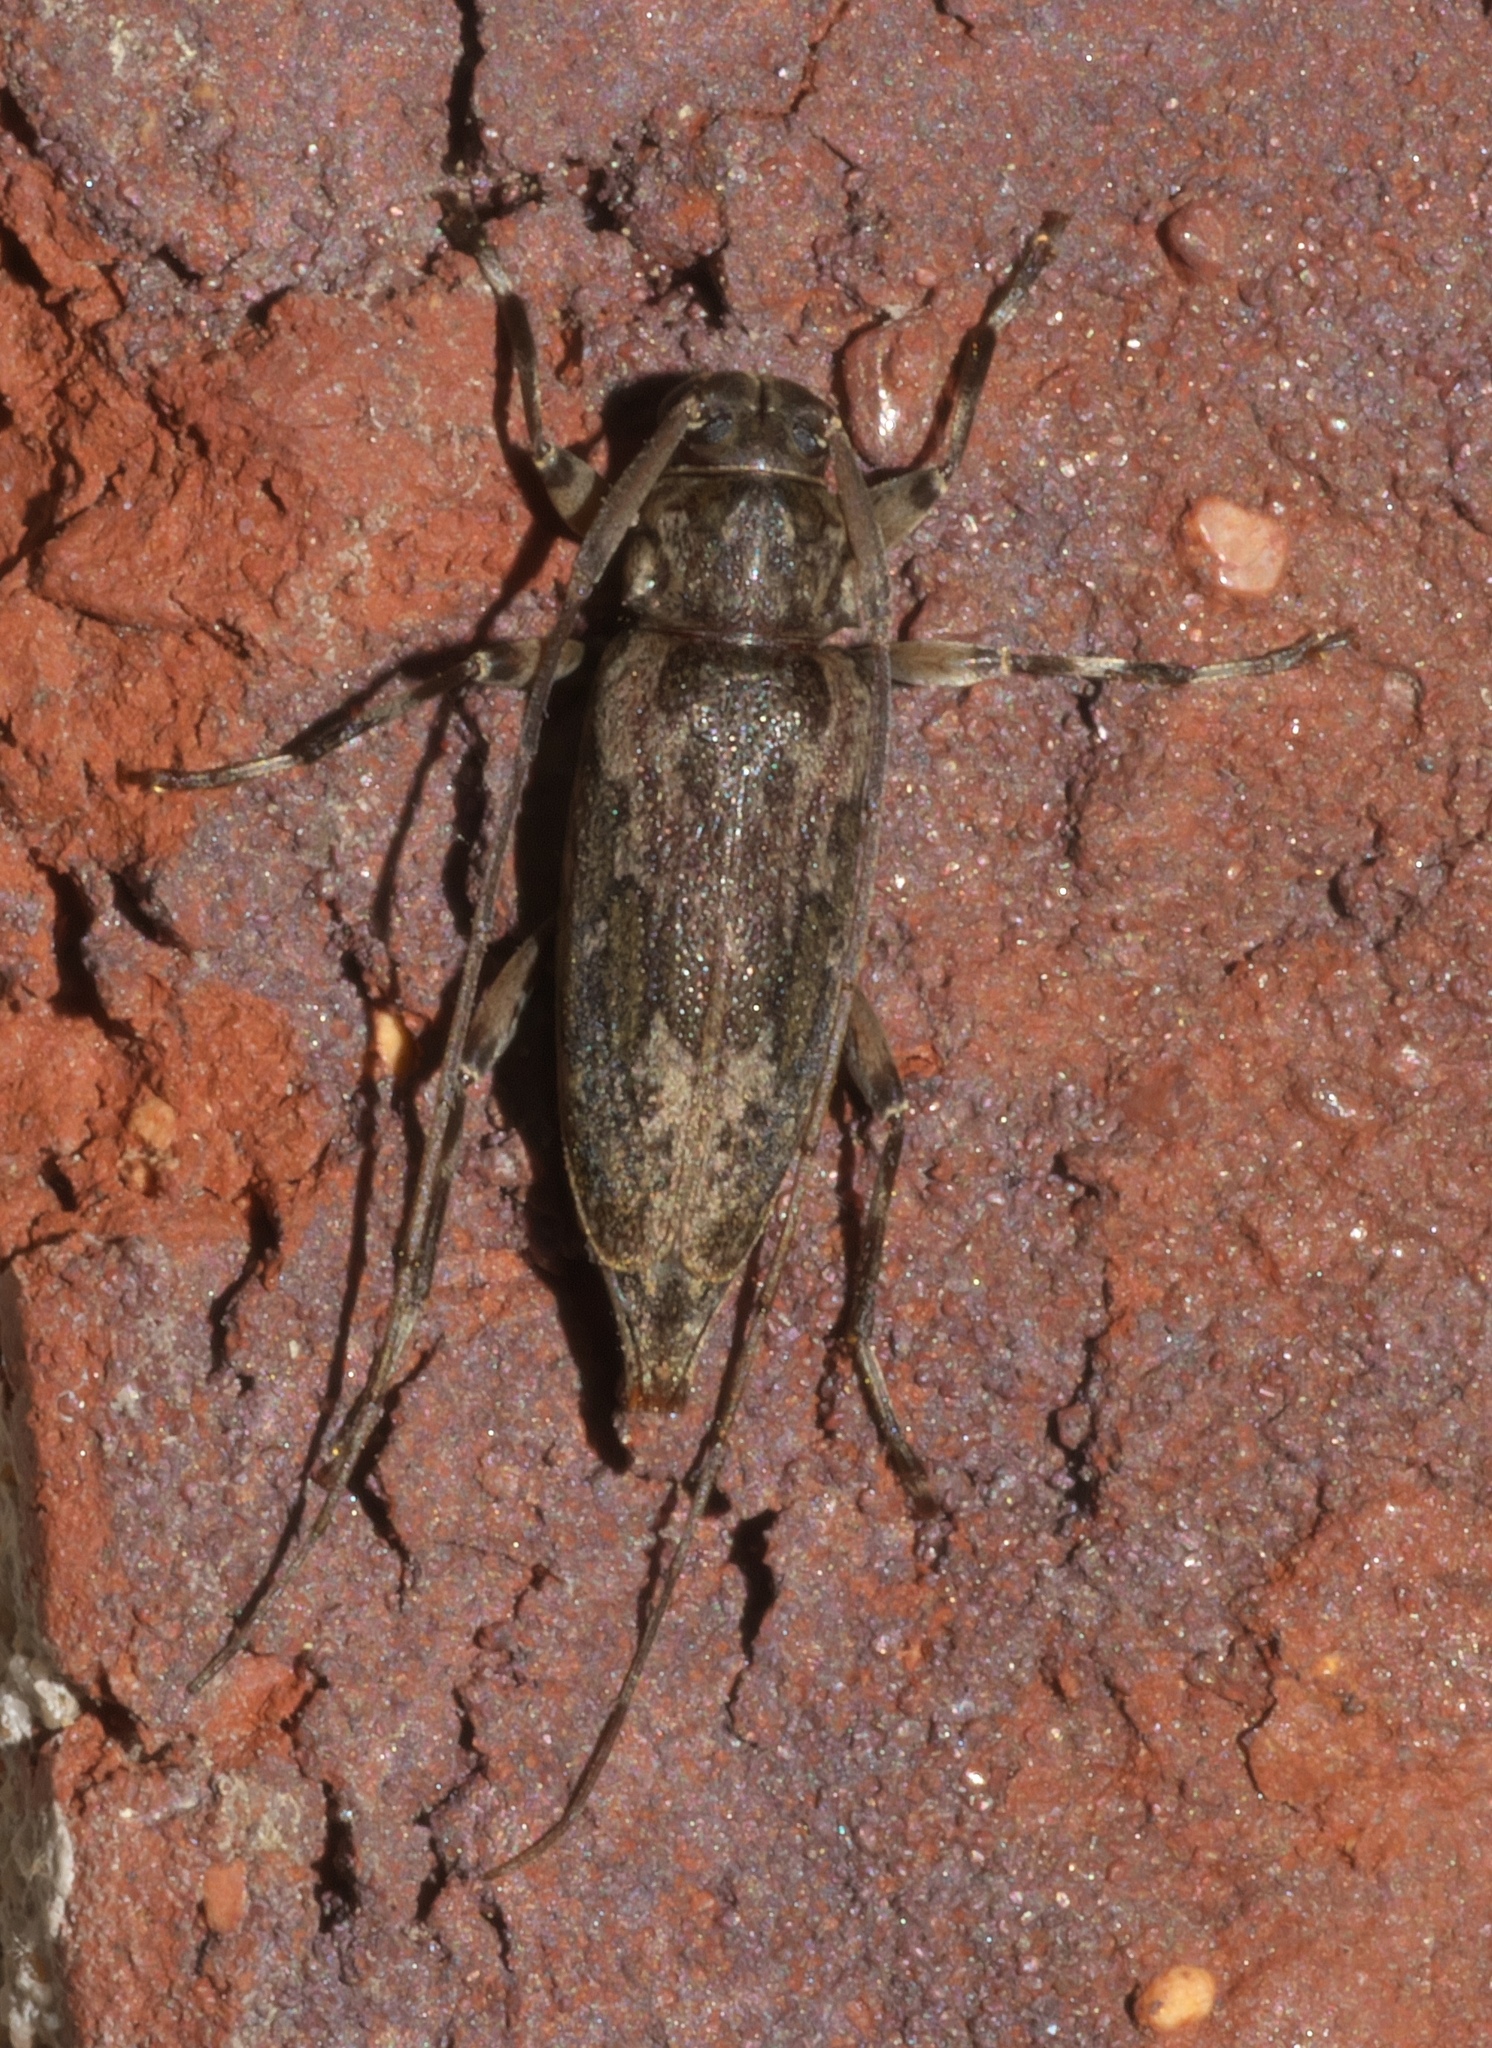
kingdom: Animalia
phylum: Arthropoda
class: Insecta
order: Coleoptera
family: Cerambycidae
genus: Lepturges
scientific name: Lepturges confluens
